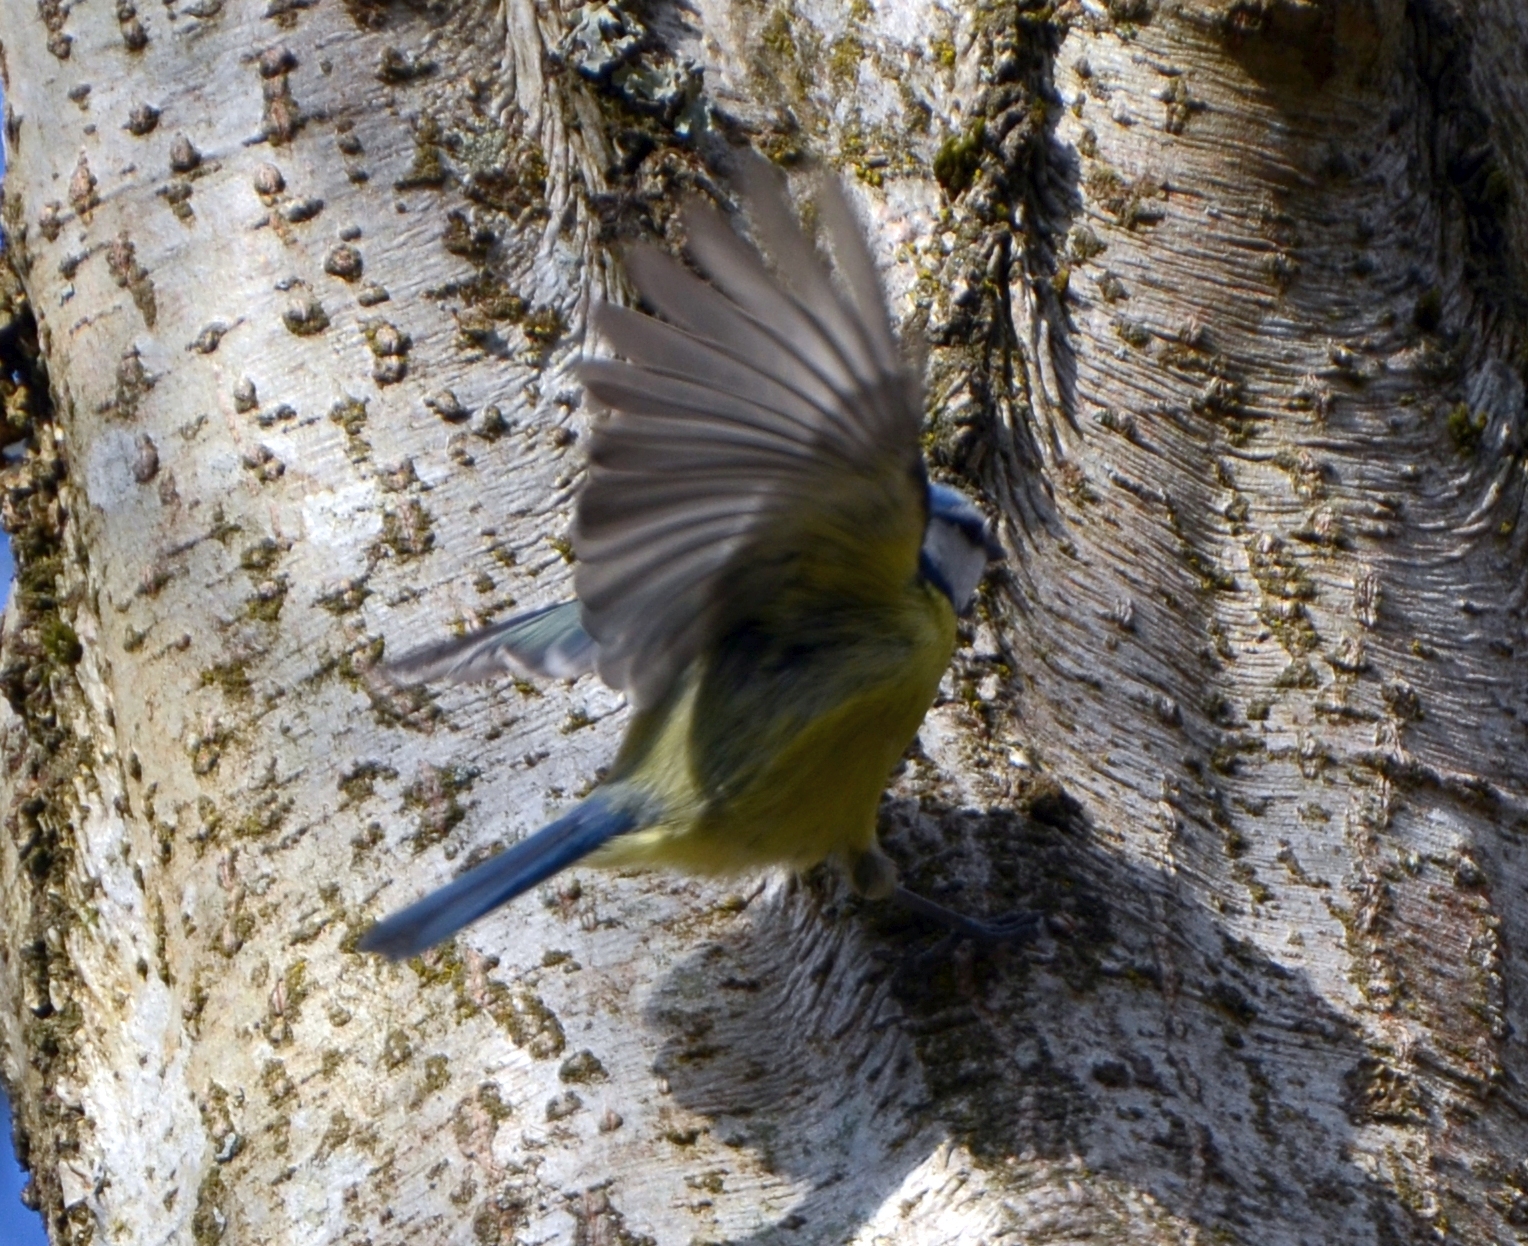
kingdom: Animalia
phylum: Chordata
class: Aves
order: Passeriformes
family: Paridae
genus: Cyanistes
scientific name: Cyanistes caeruleus
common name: Eurasian blue tit
